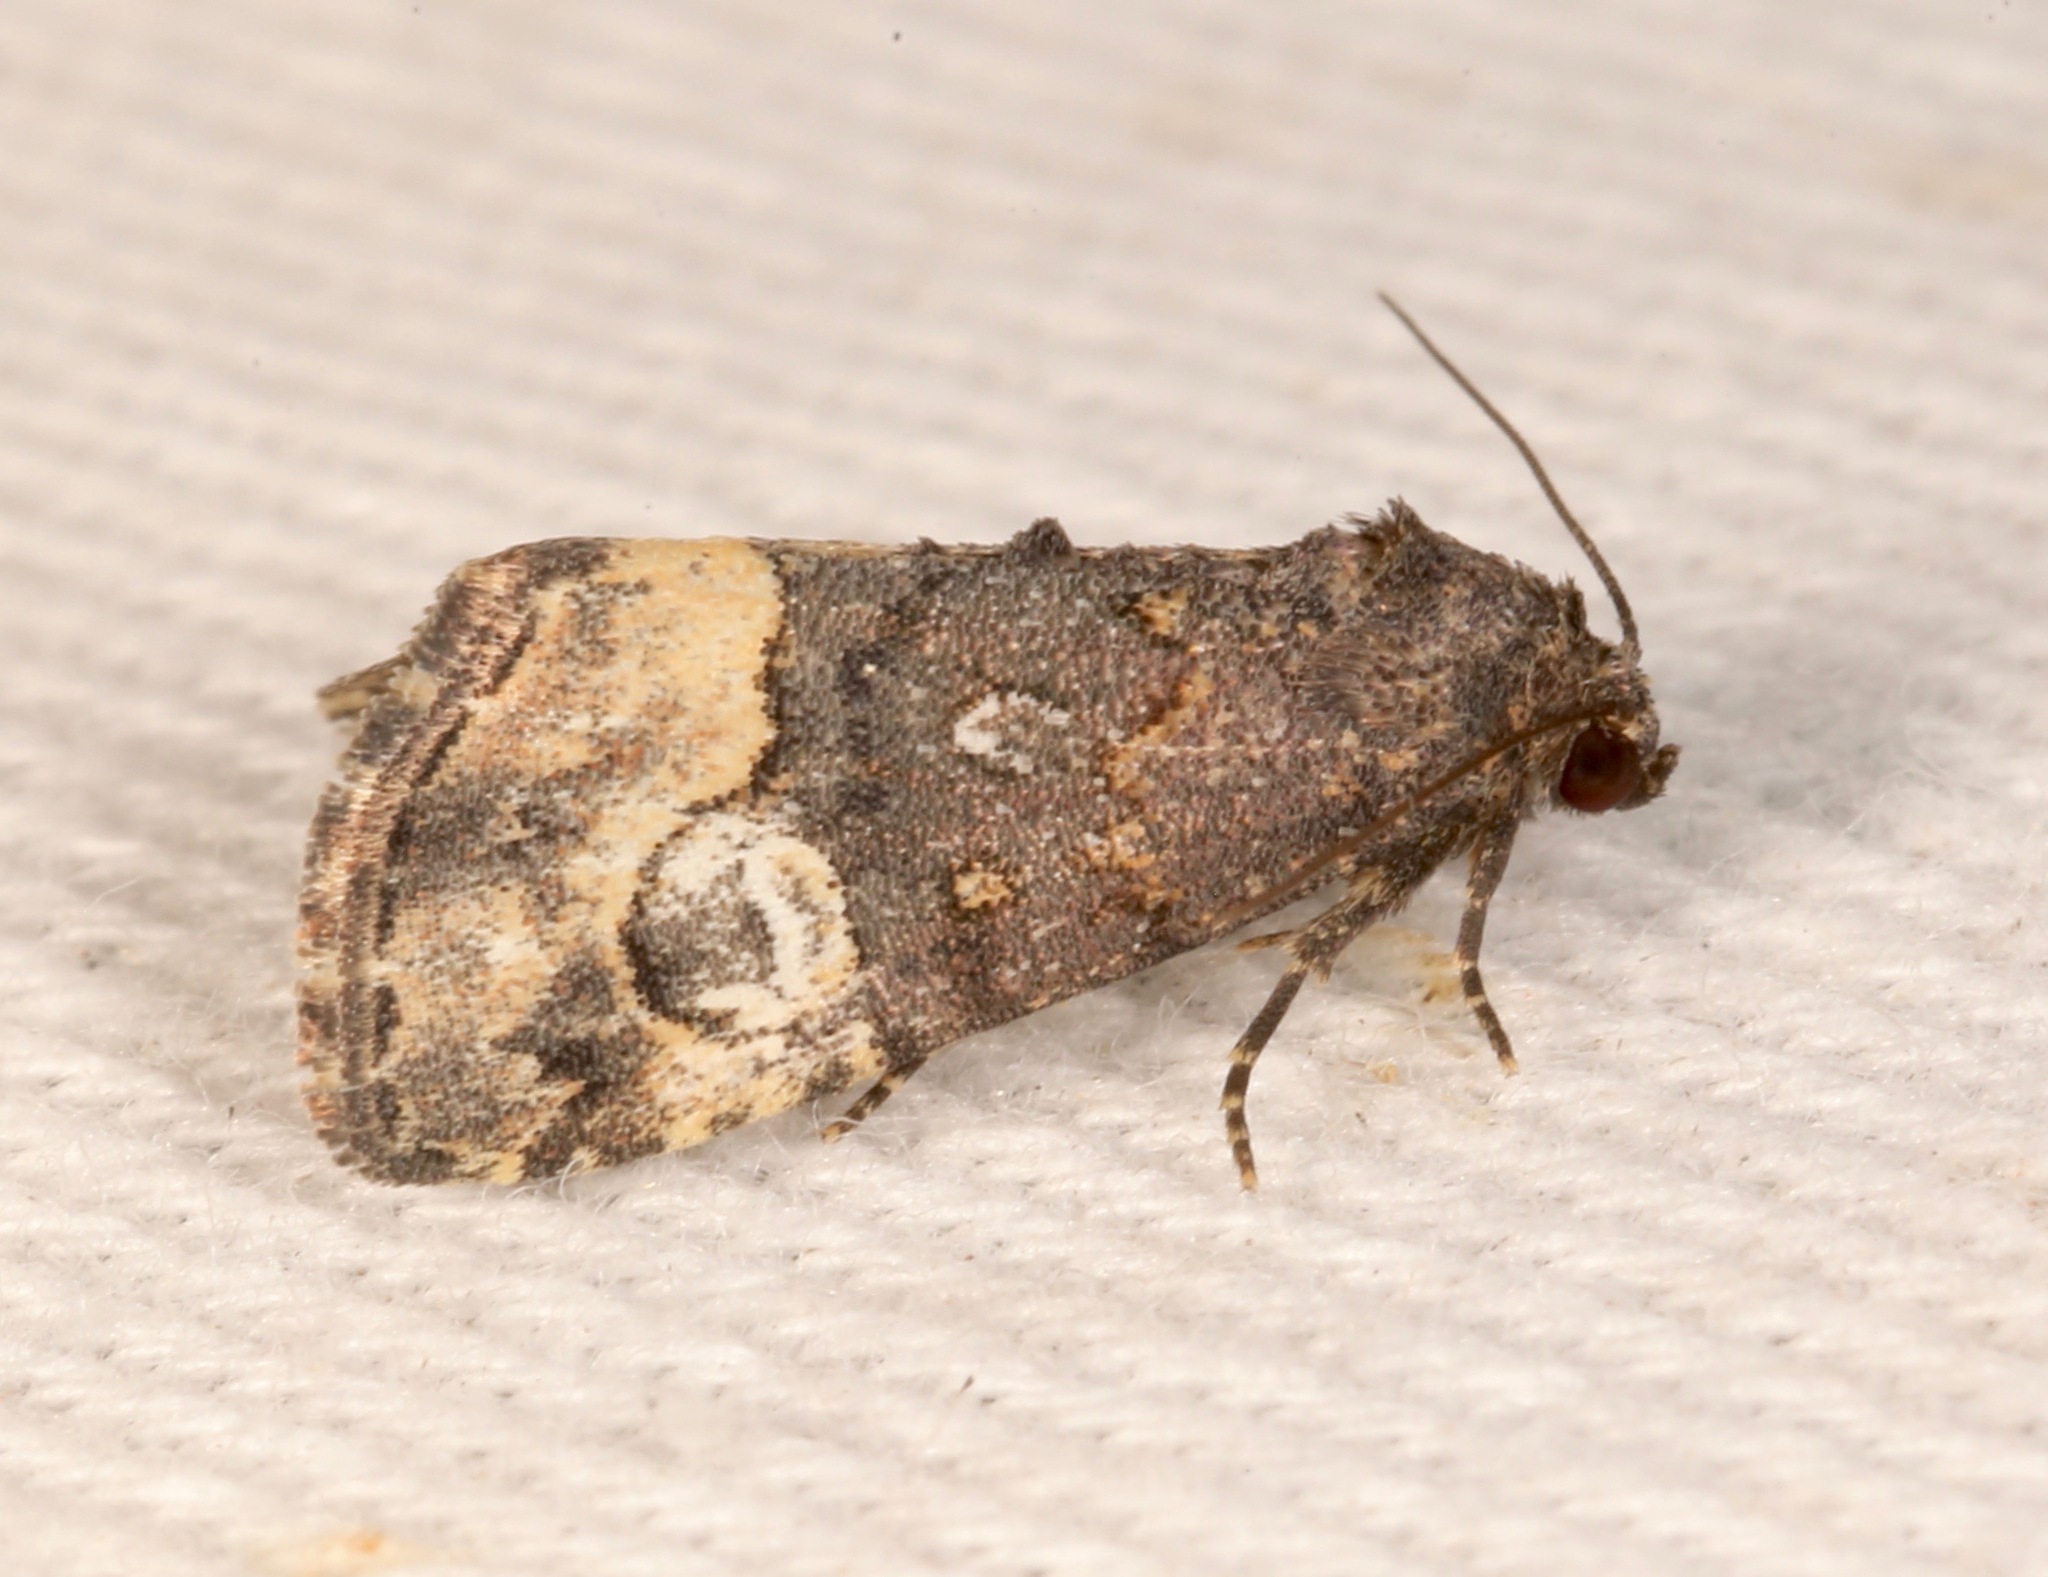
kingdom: Animalia
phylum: Arthropoda
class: Insecta
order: Lepidoptera
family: Noctuidae
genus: Ozarba
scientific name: Ozarba propera
